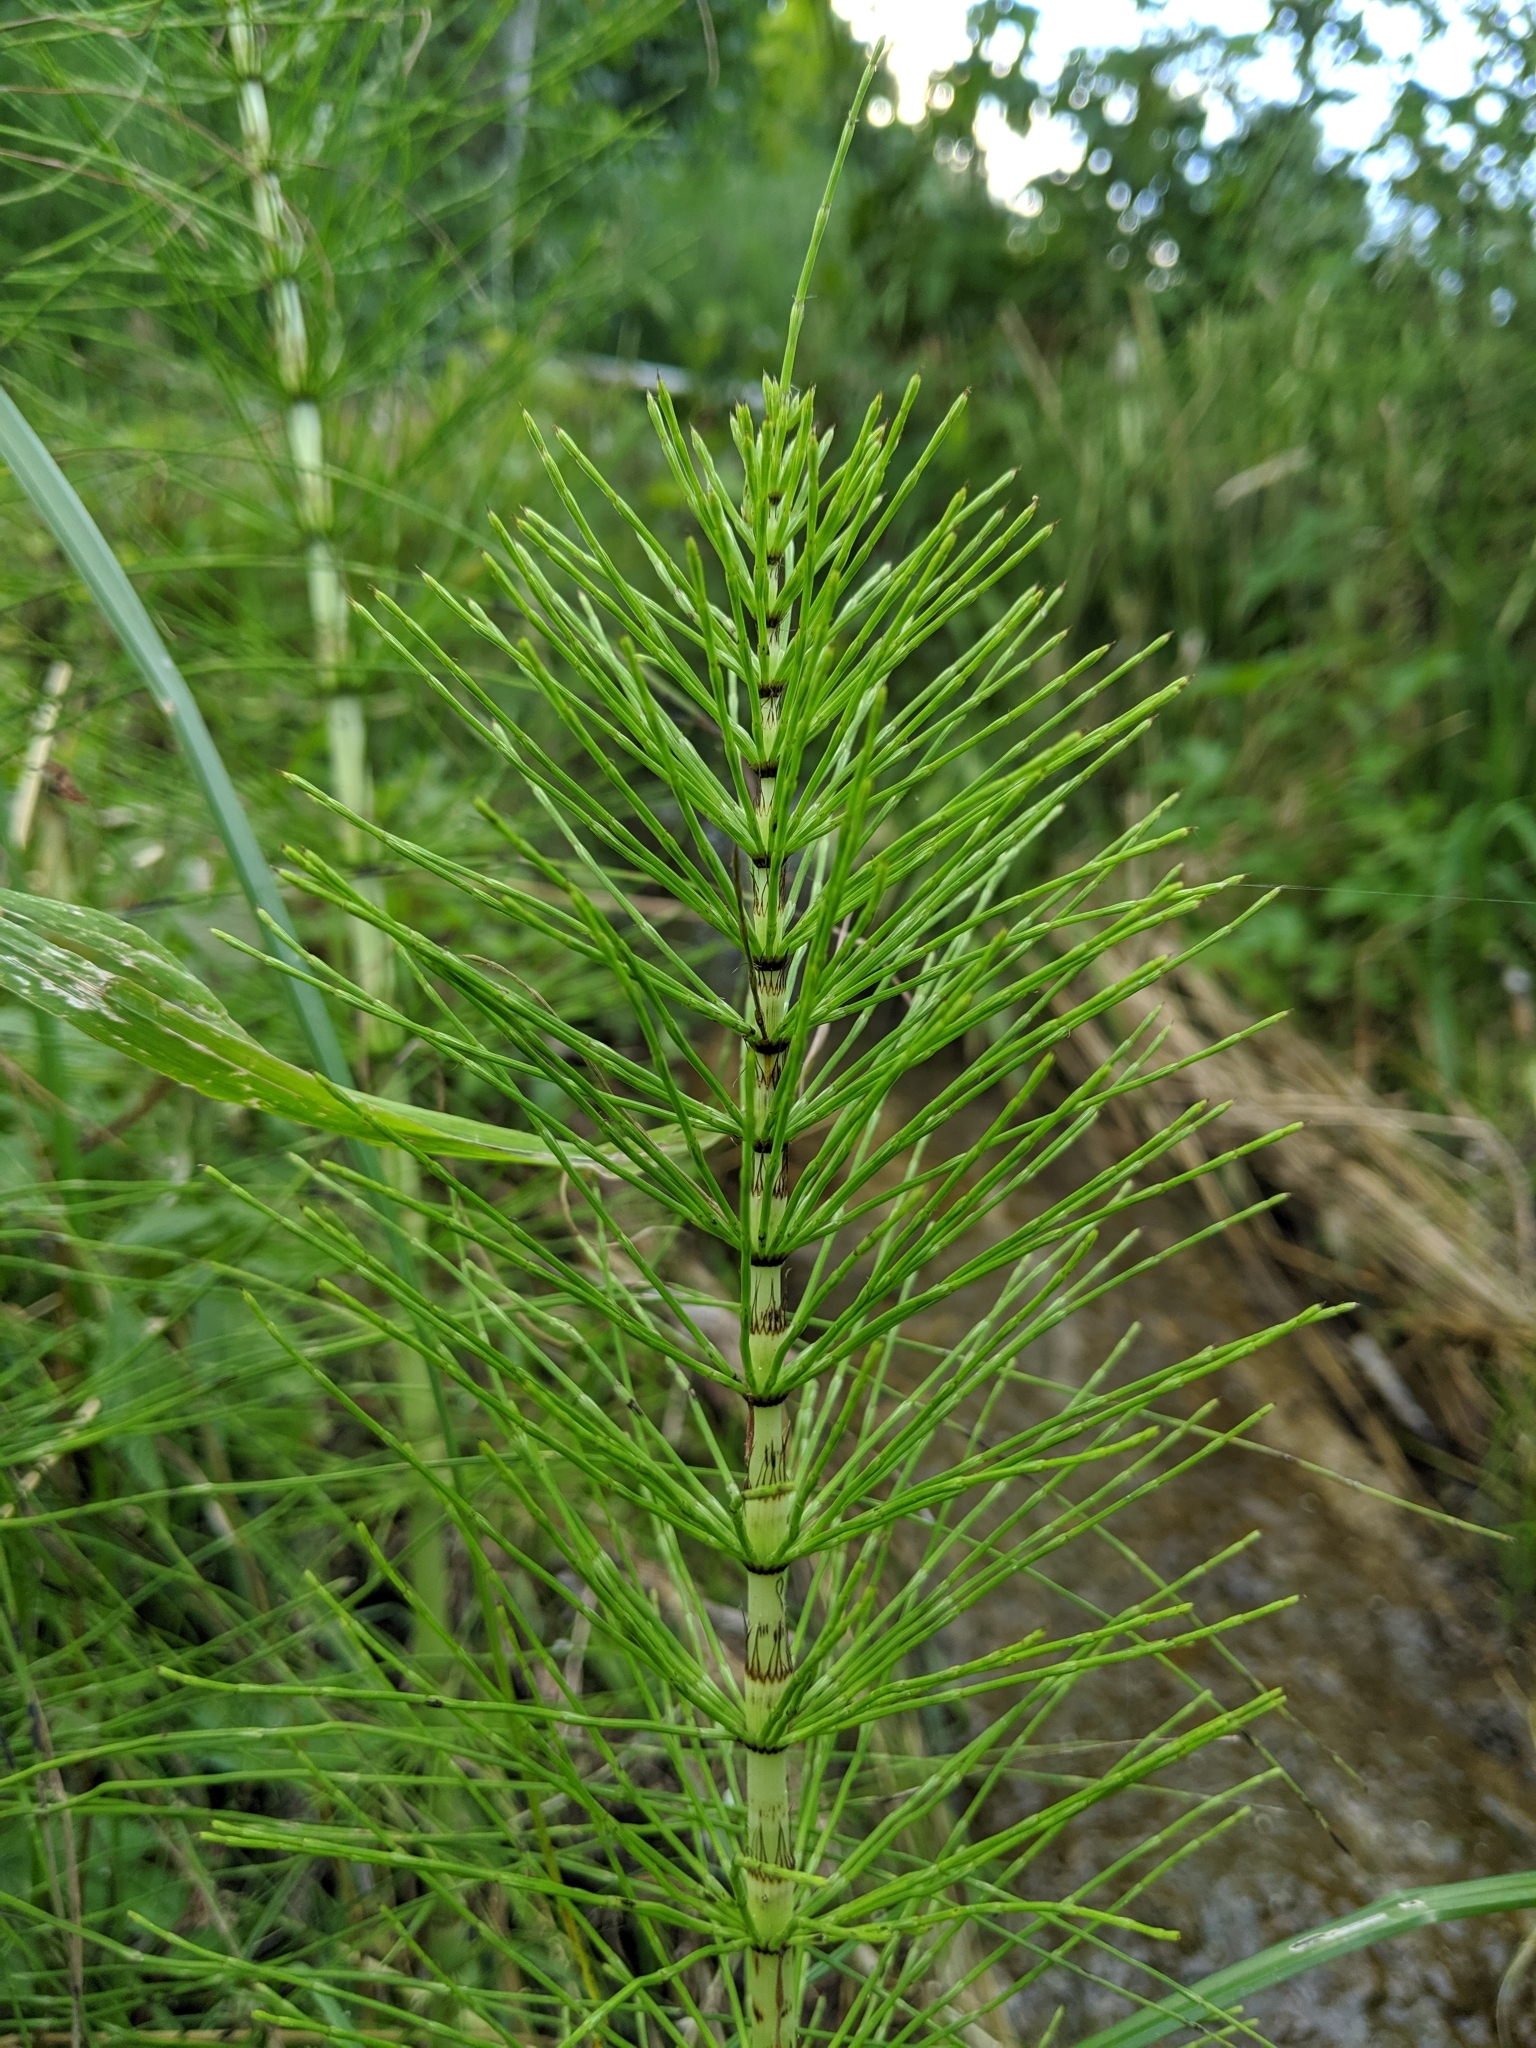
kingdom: Plantae
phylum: Tracheophyta
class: Polypodiopsida
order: Equisetales
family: Equisetaceae
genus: Equisetum
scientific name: Equisetum telmateia
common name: Great horsetail
